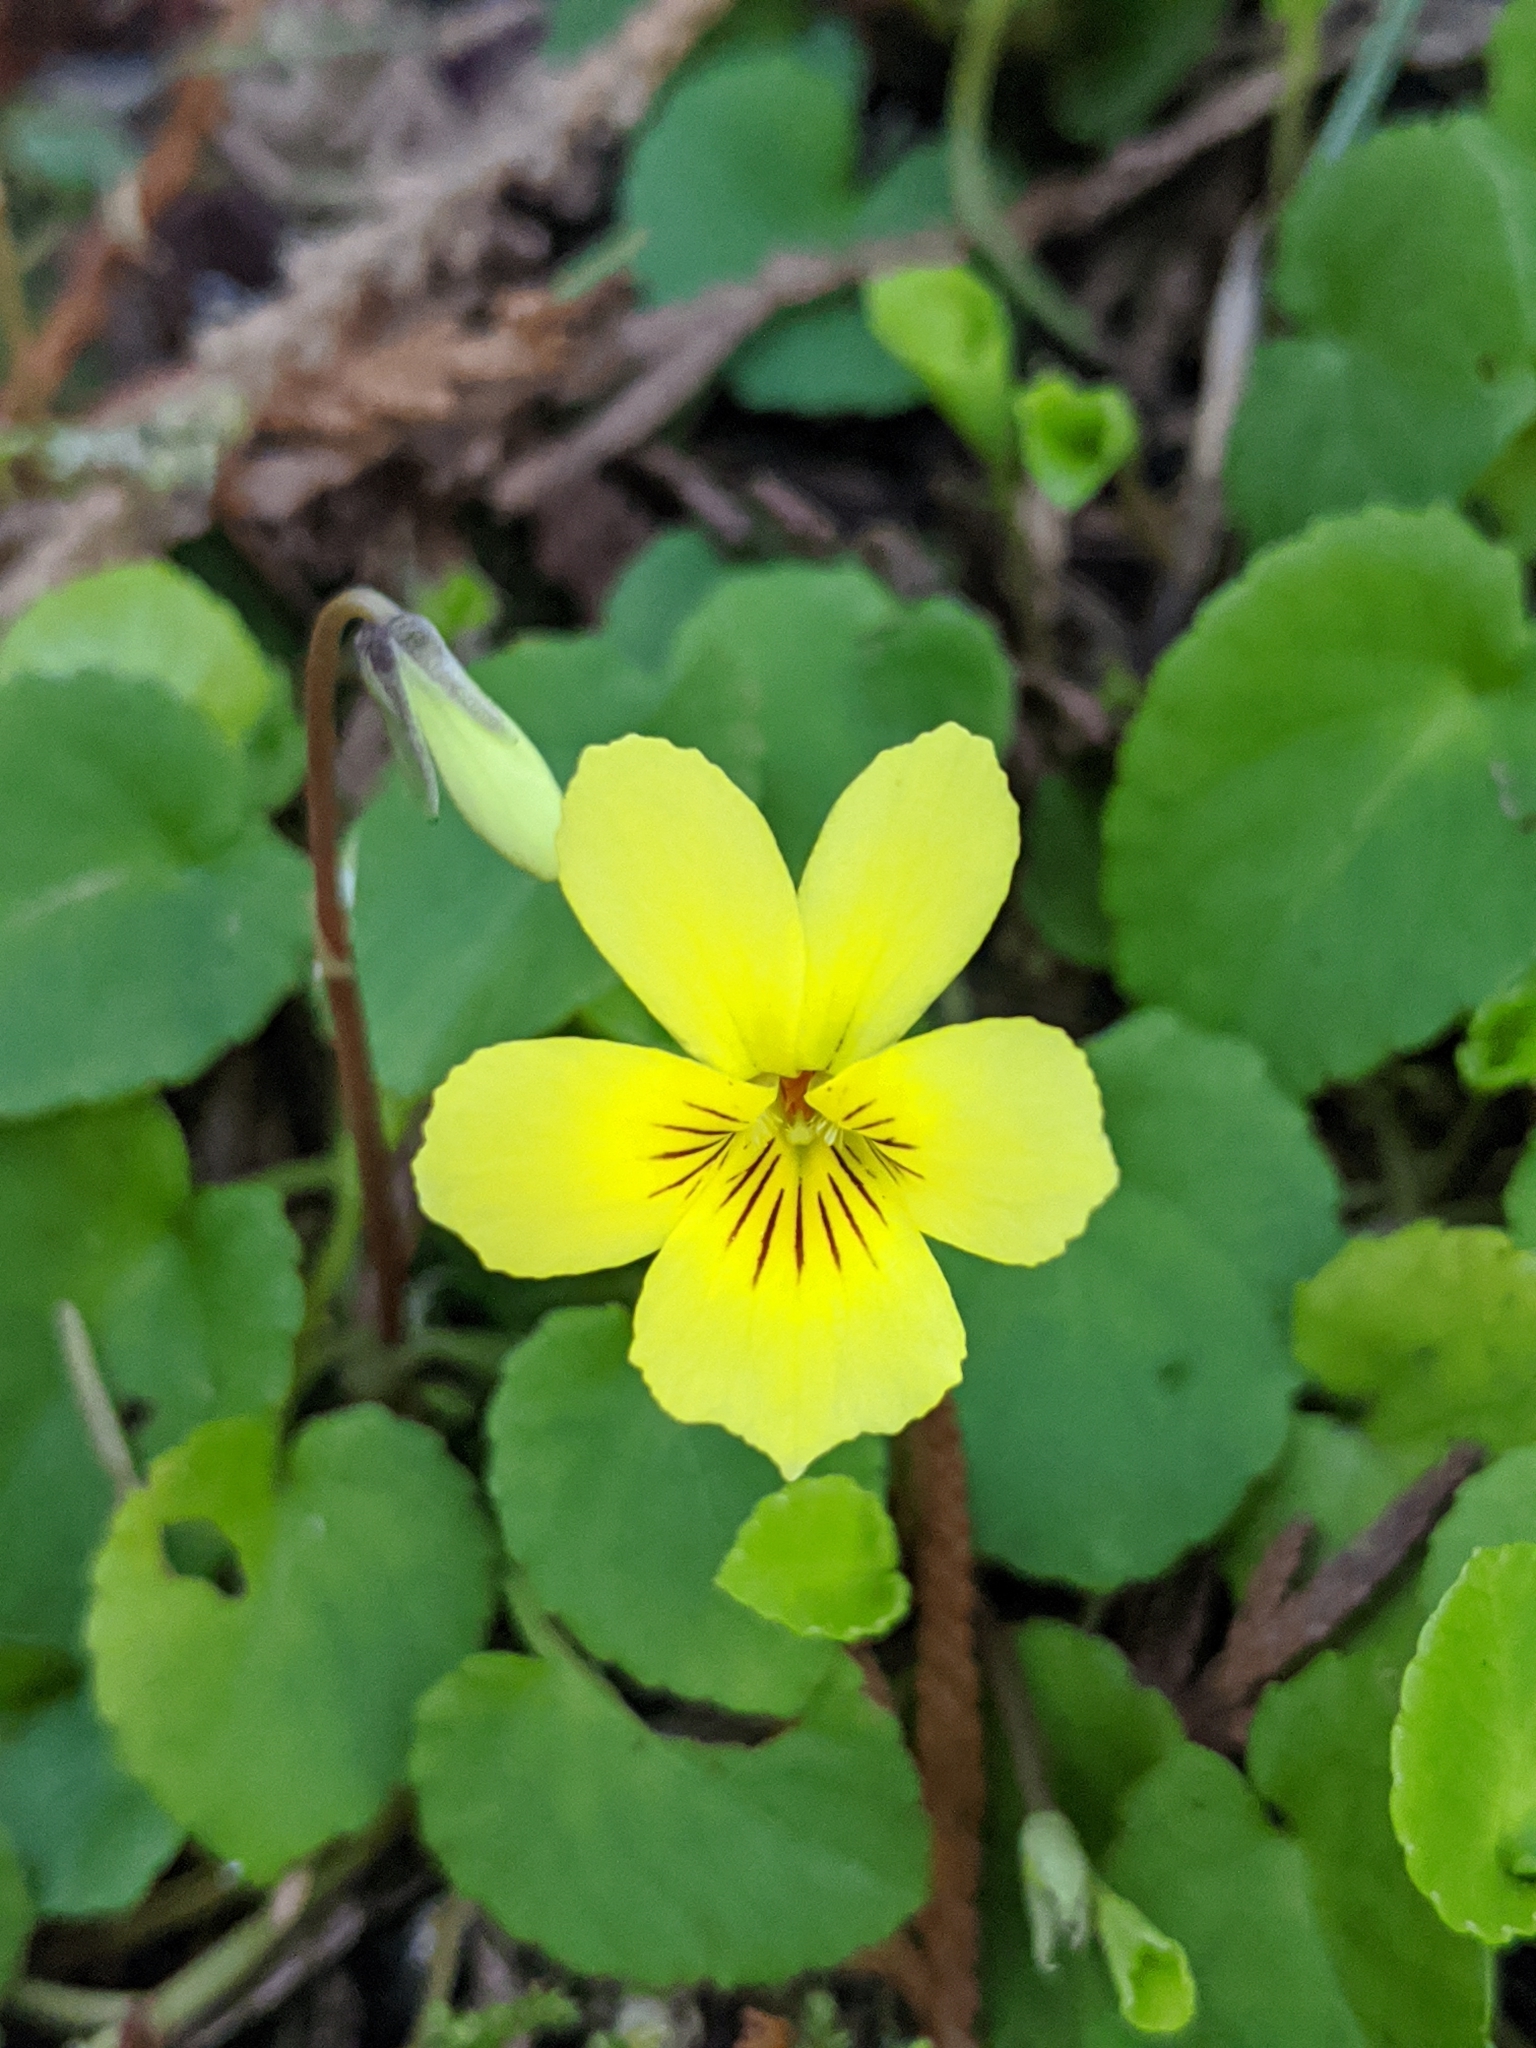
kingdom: Plantae
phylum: Tracheophyta
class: Magnoliopsida
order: Malpighiales
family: Violaceae
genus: Viola
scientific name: Viola sempervirens
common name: Evergreen violet
